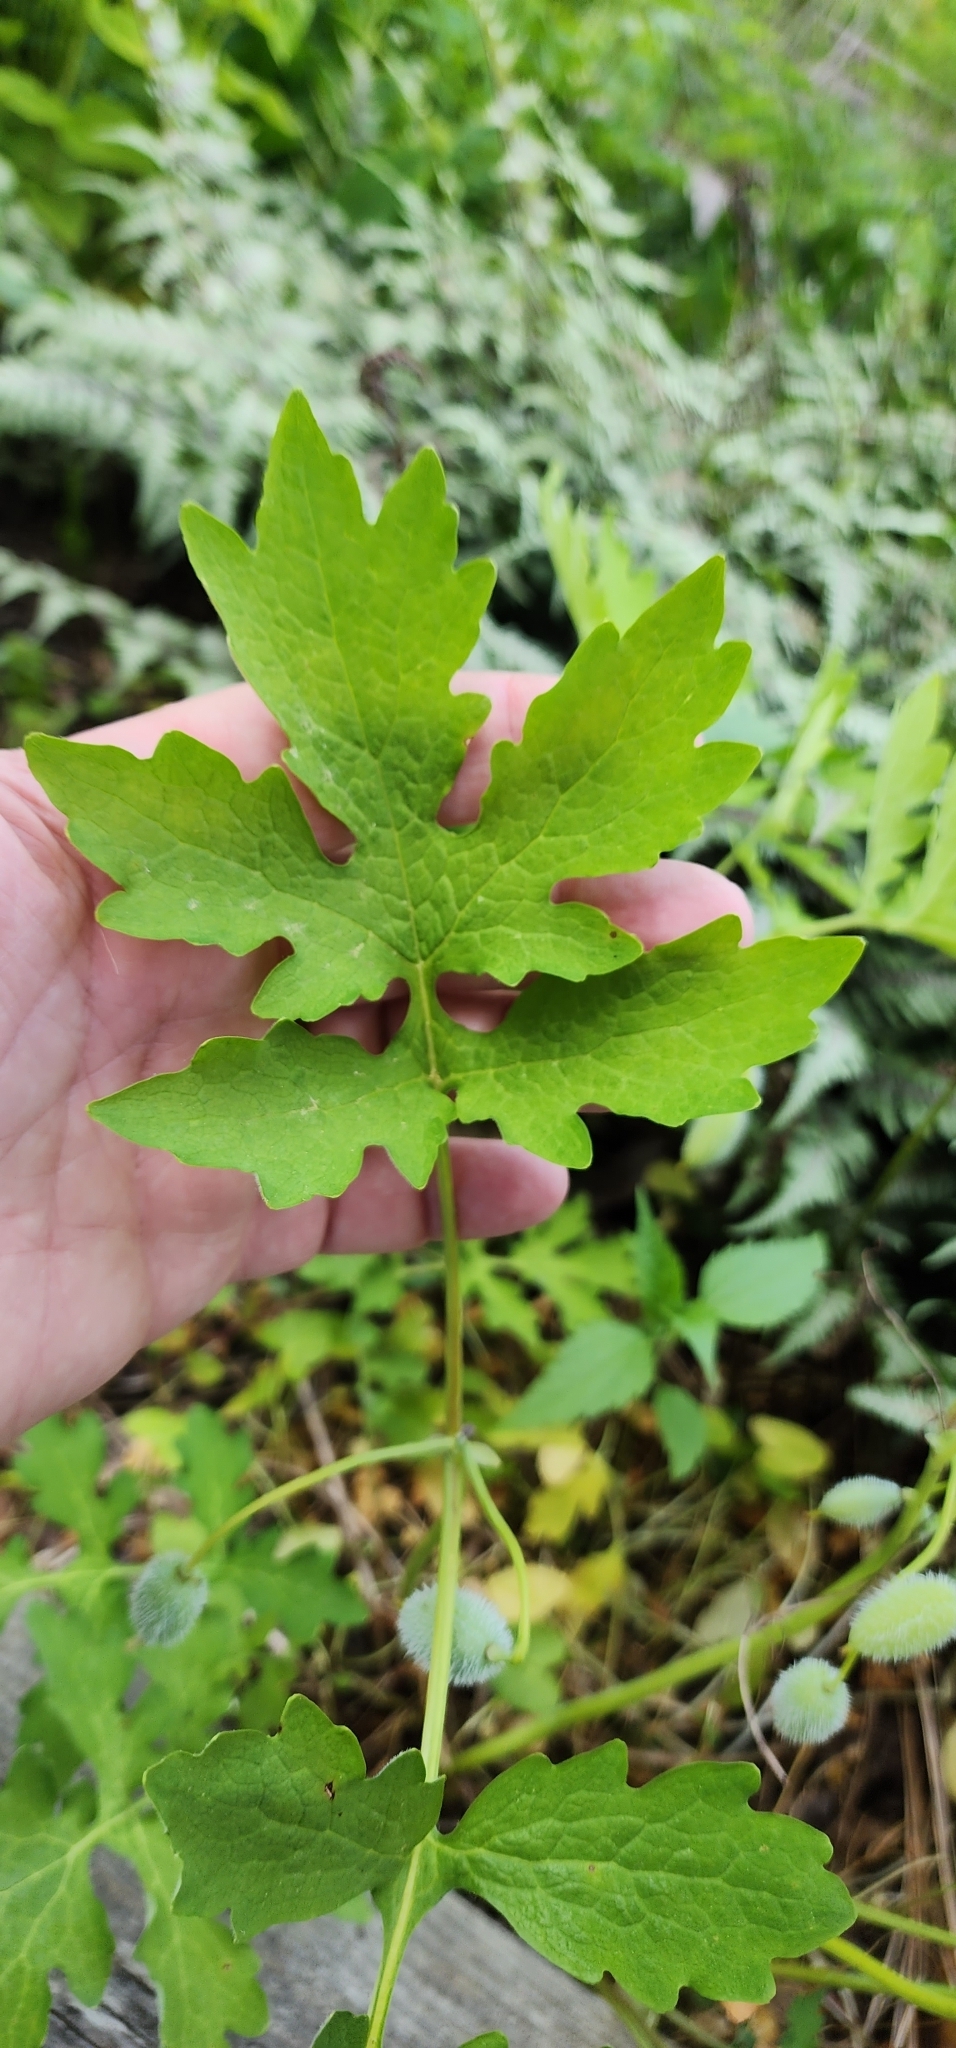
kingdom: Plantae
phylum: Tracheophyta
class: Magnoliopsida
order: Ranunculales
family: Papaveraceae
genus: Stylophorum
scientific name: Stylophorum diphyllum
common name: Celandine poppy
